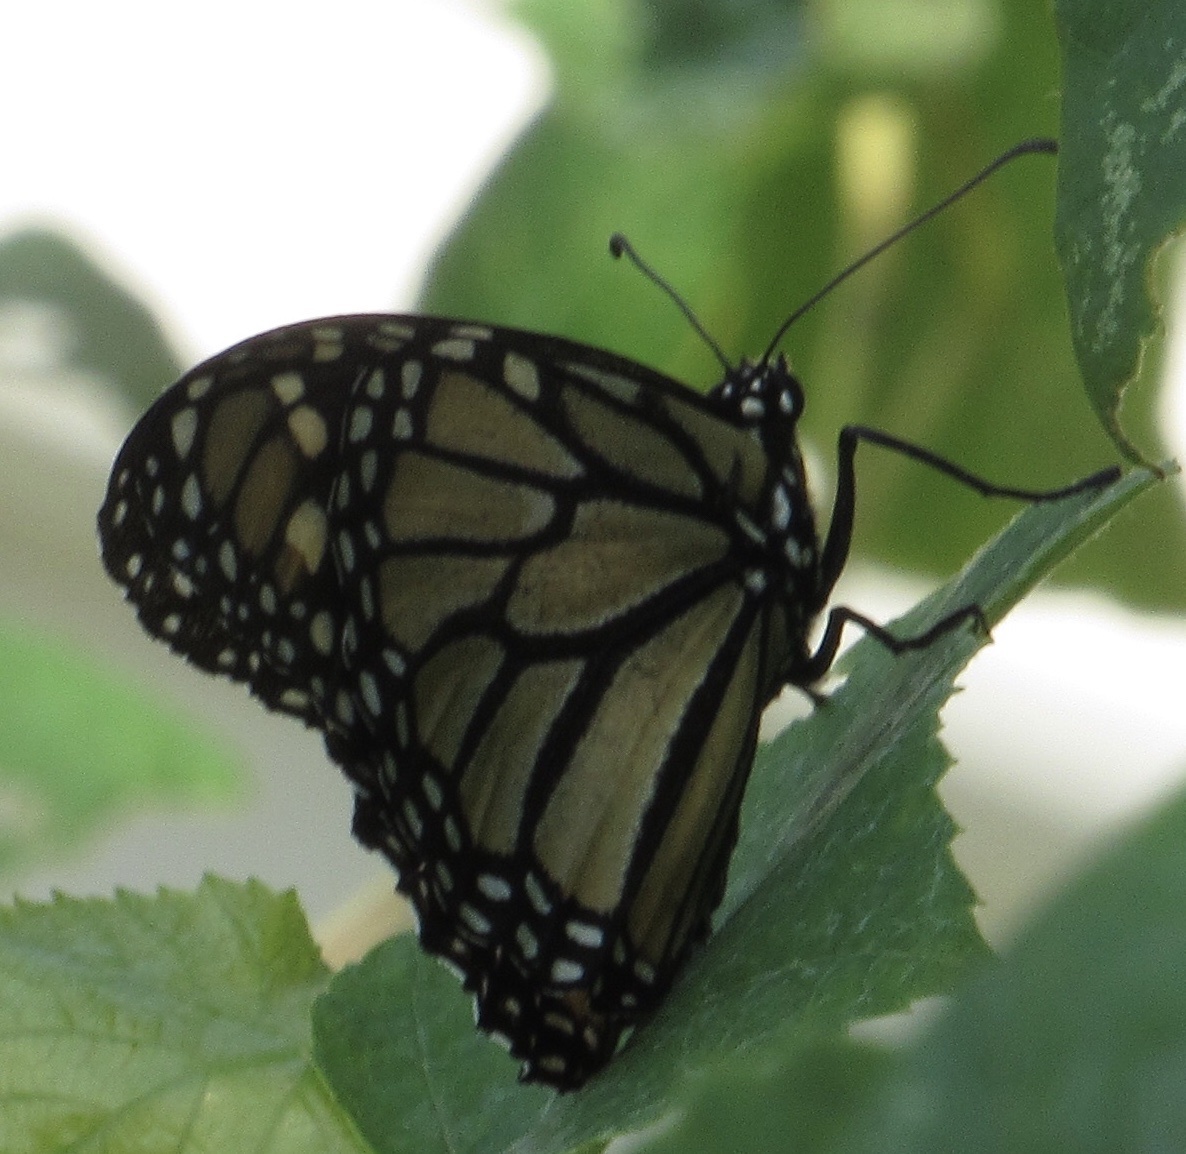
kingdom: Animalia
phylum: Arthropoda
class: Insecta
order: Lepidoptera
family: Nymphalidae
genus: Danaus
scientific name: Danaus plexippus
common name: Monarch
